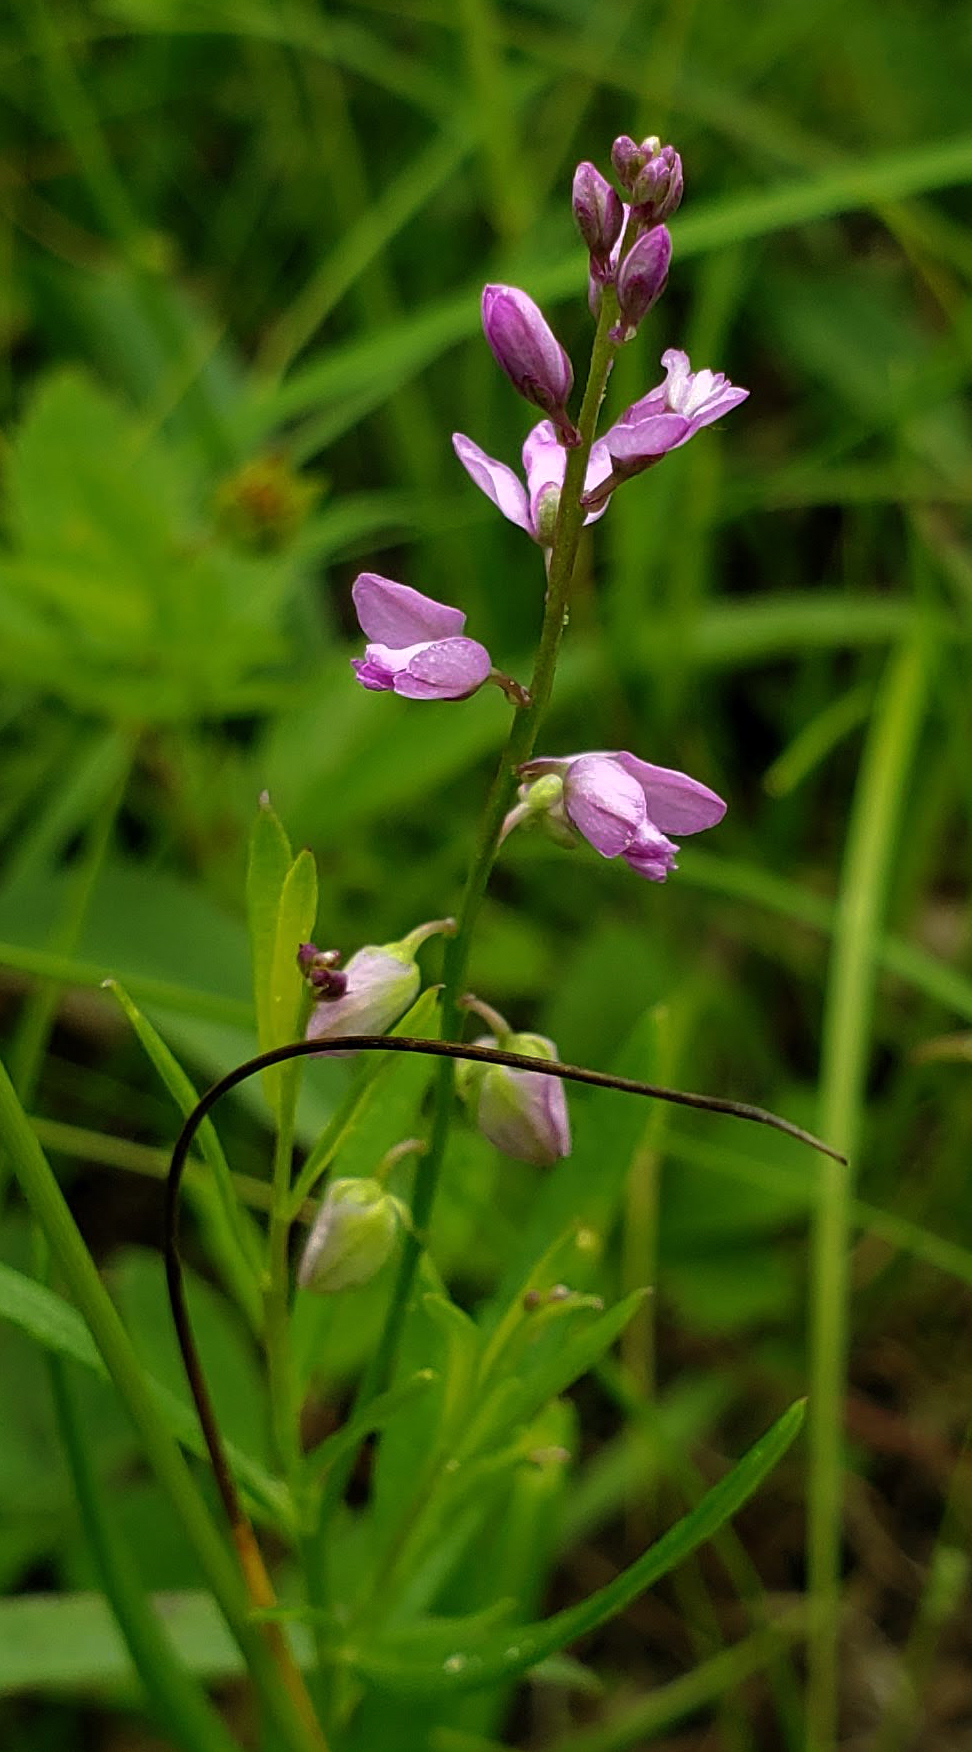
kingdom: Plantae
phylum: Tracheophyta
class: Magnoliopsida
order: Fabales
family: Polygalaceae
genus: Polygala
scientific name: Polygala polygama
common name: Bitter milkwort
